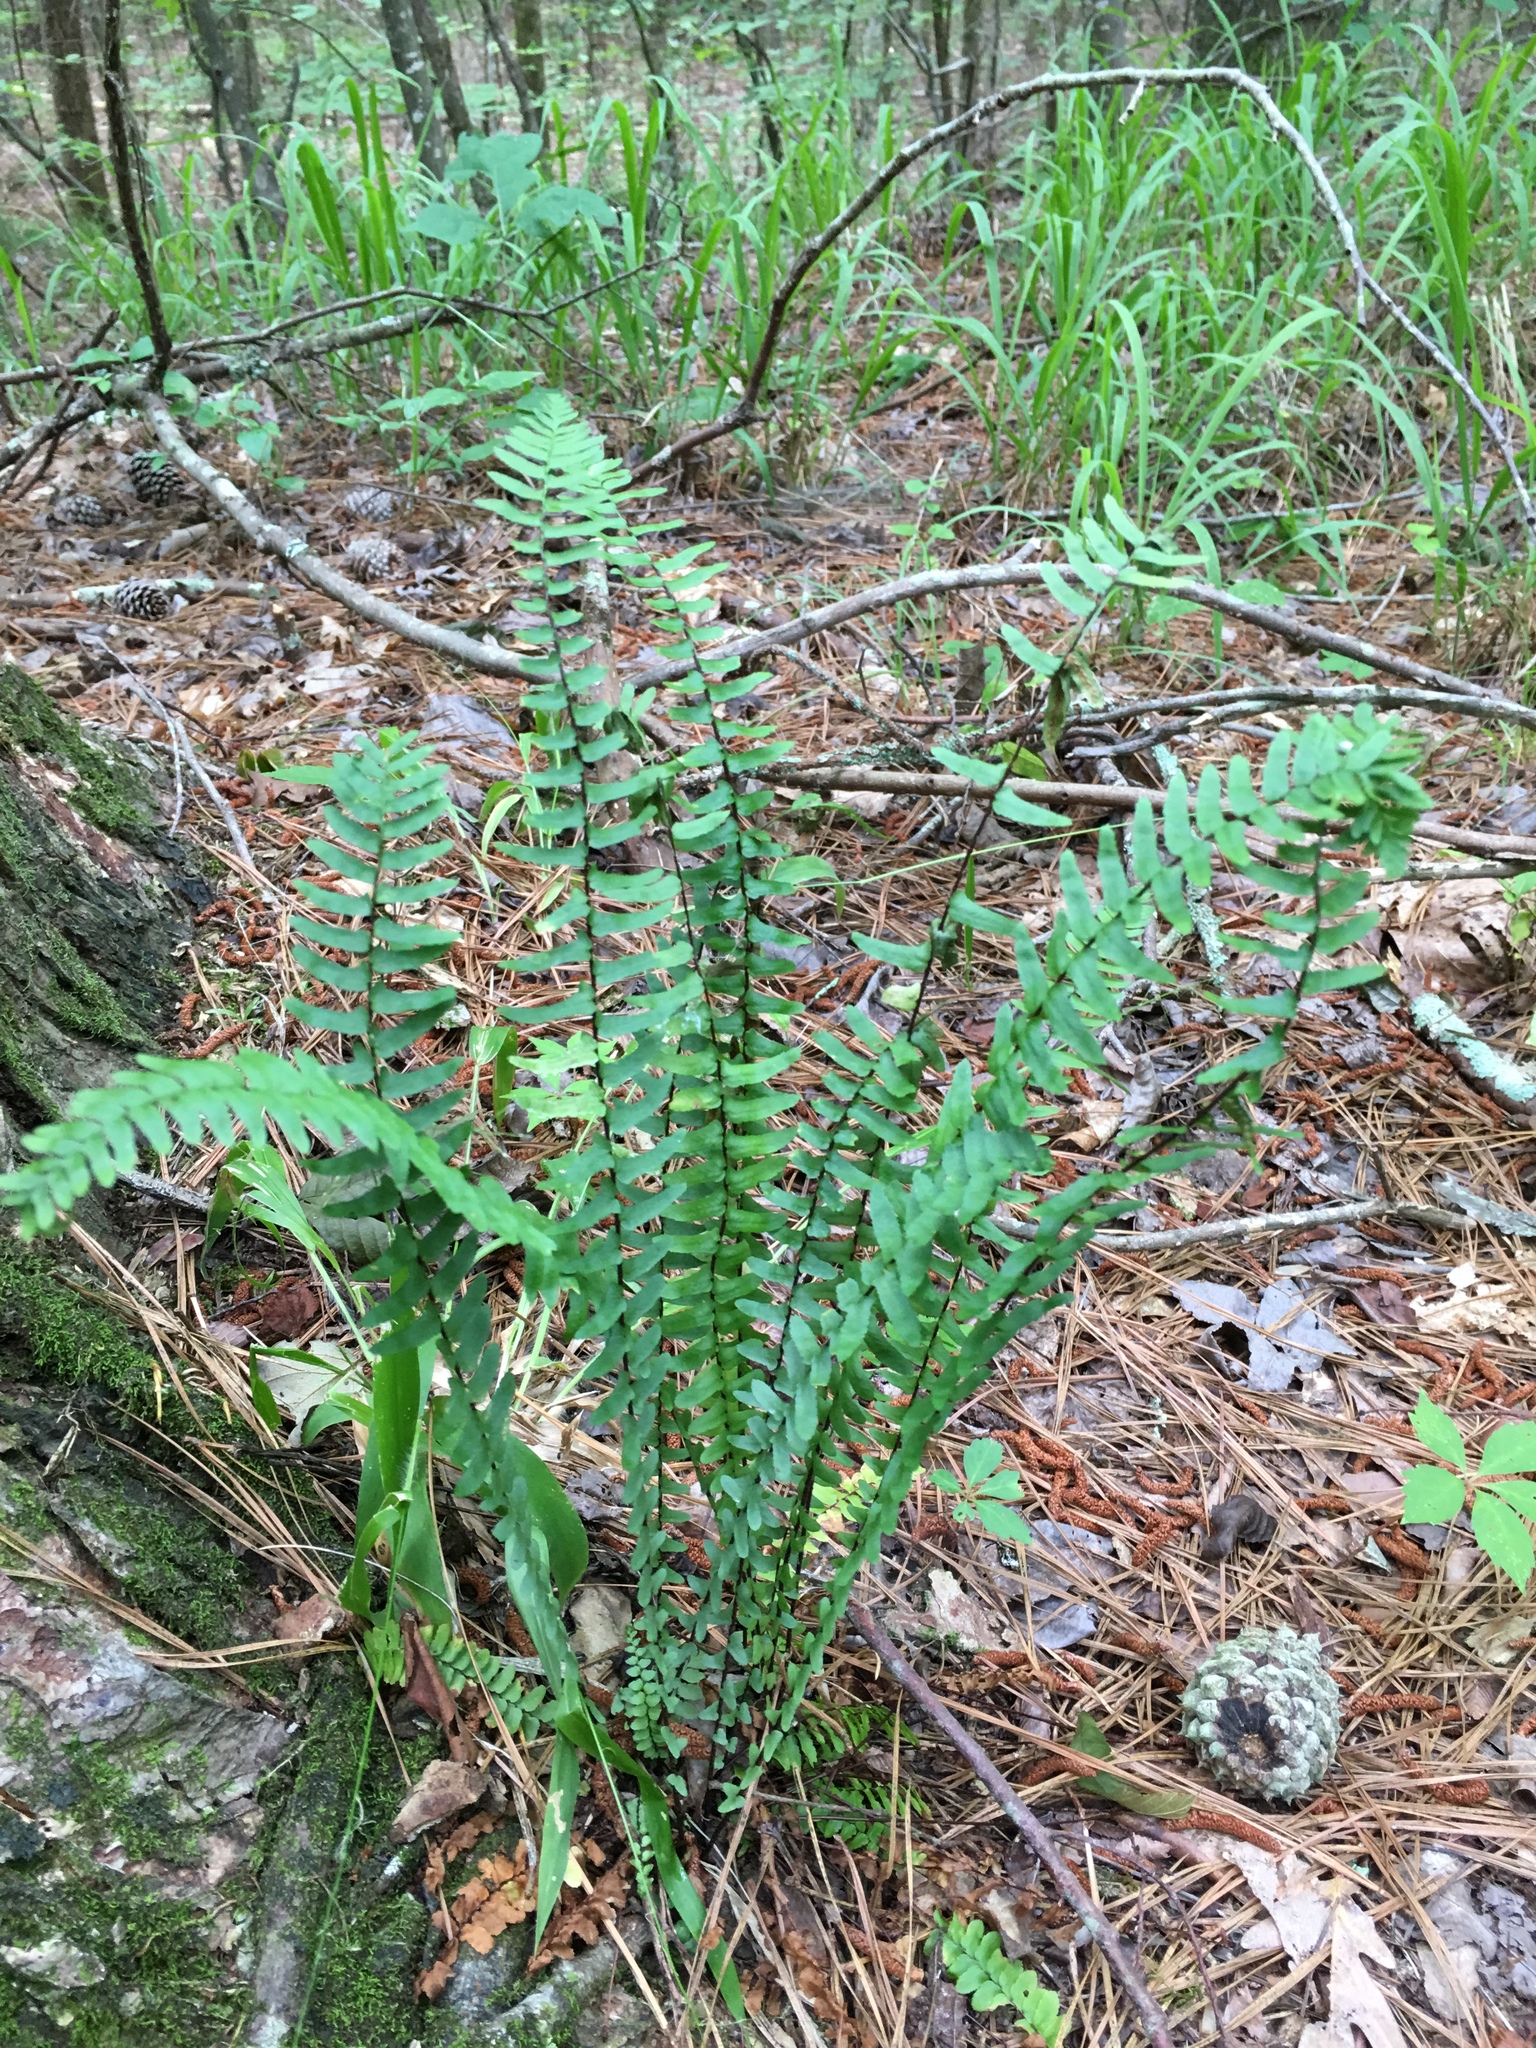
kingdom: Plantae
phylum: Tracheophyta
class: Polypodiopsida
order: Polypodiales
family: Aspleniaceae
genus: Asplenium
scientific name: Asplenium platyneuron
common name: Ebony spleenwort
